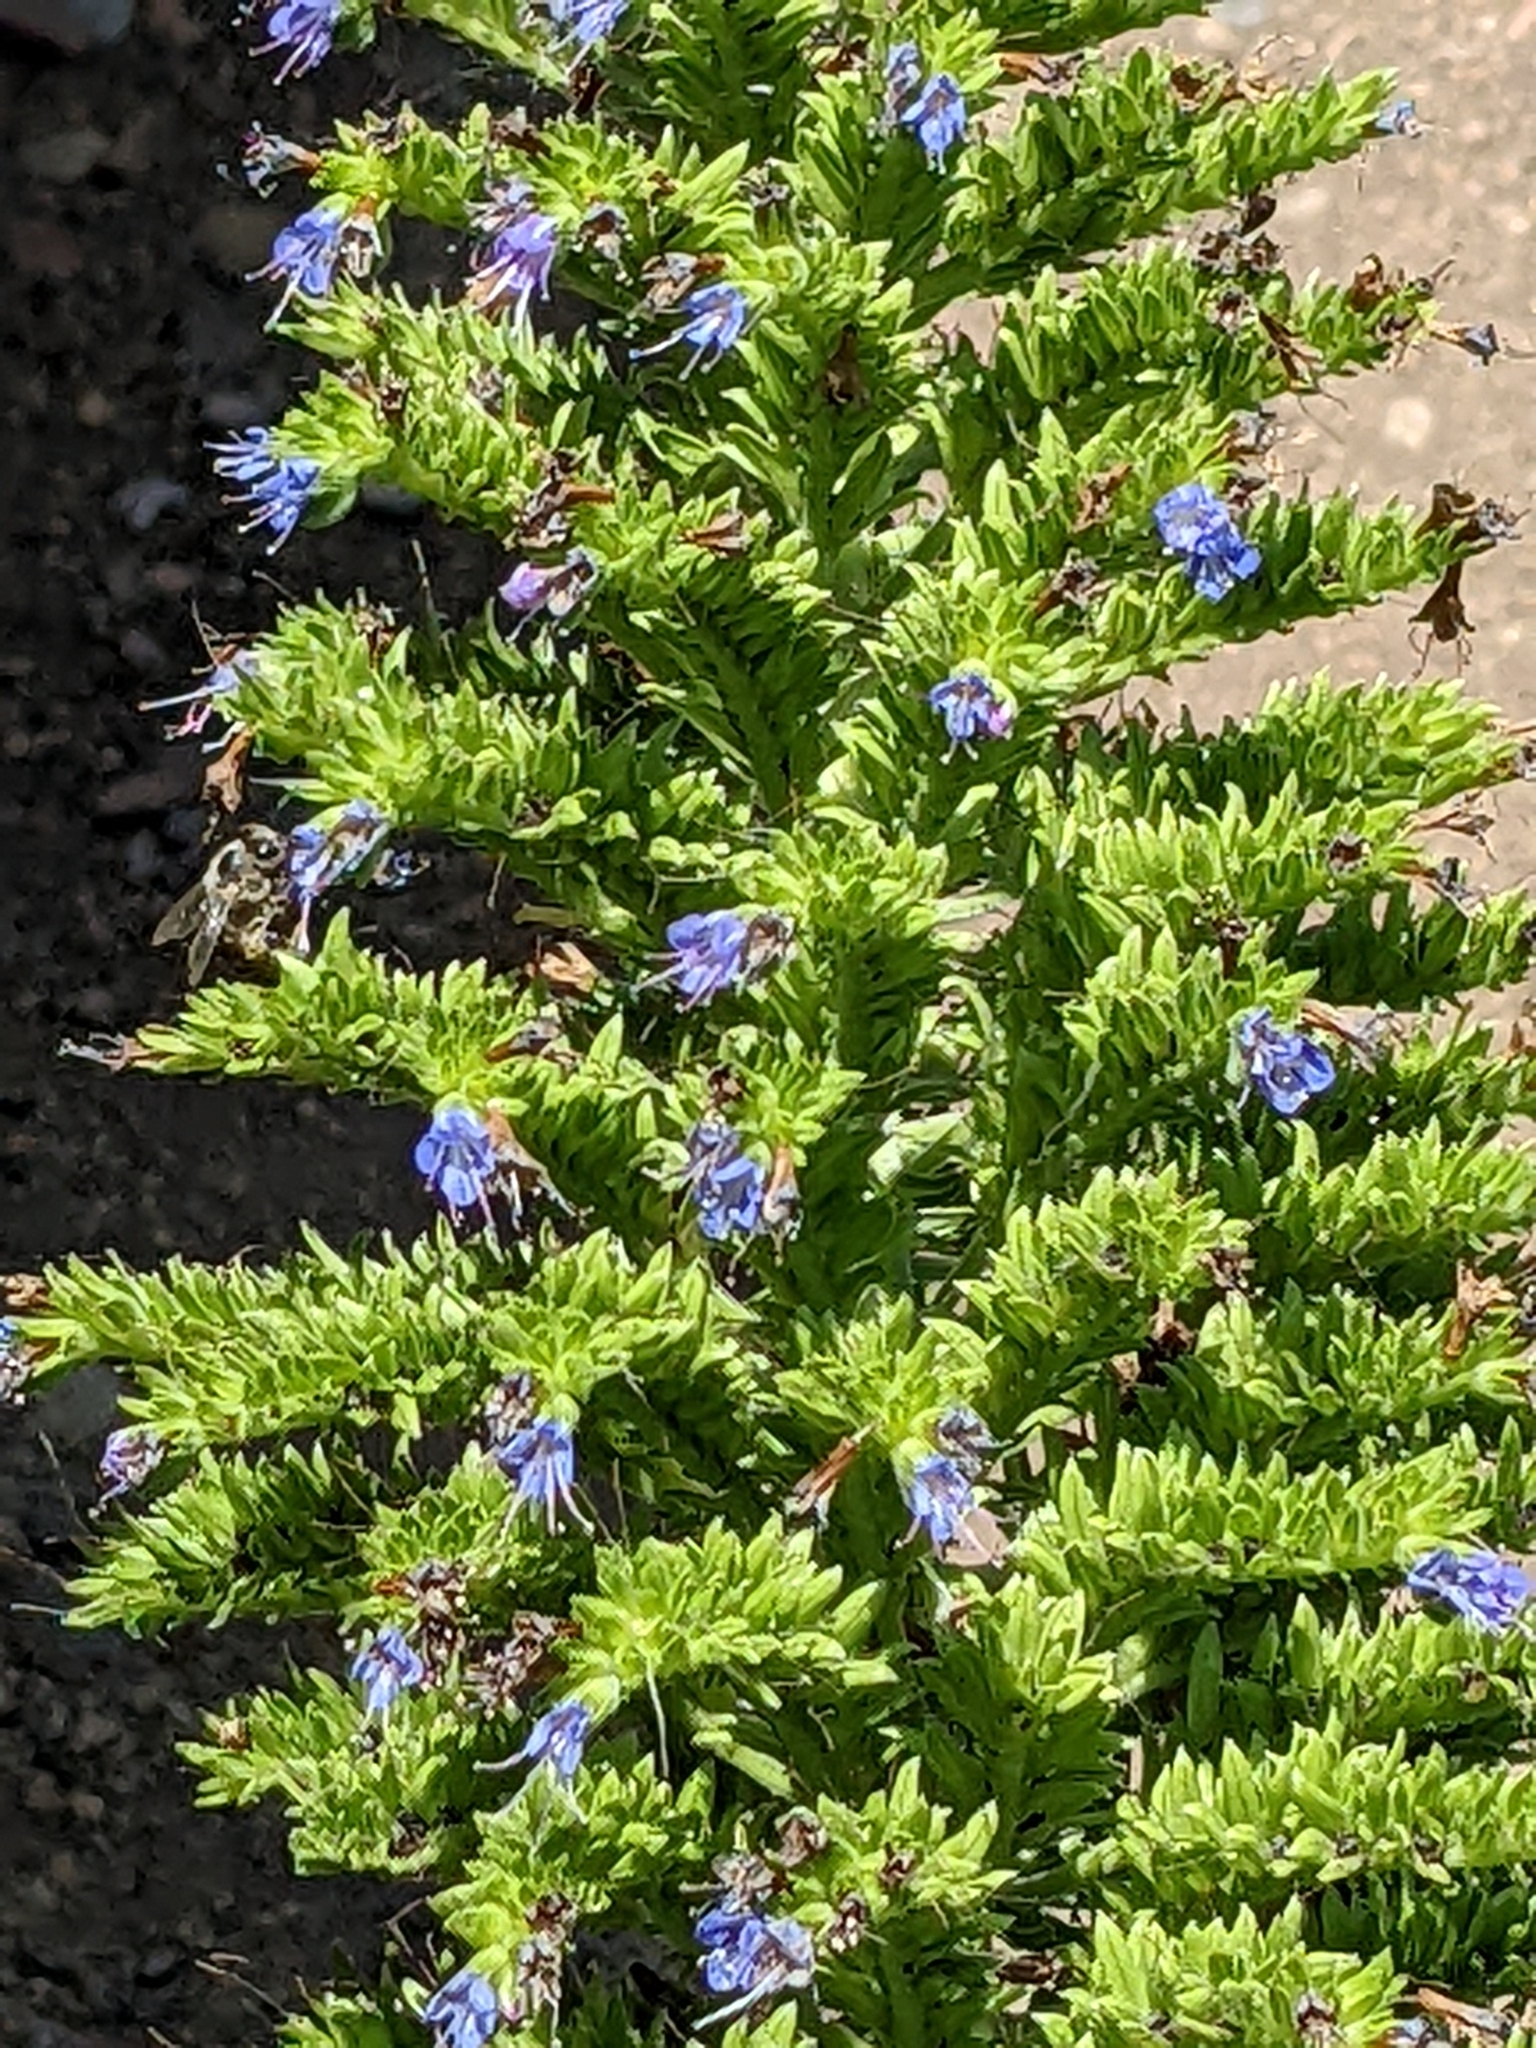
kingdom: Plantae
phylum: Tracheophyta
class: Magnoliopsida
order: Boraginales
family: Boraginaceae
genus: Echium
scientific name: Echium candicans
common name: Pride of madeira
